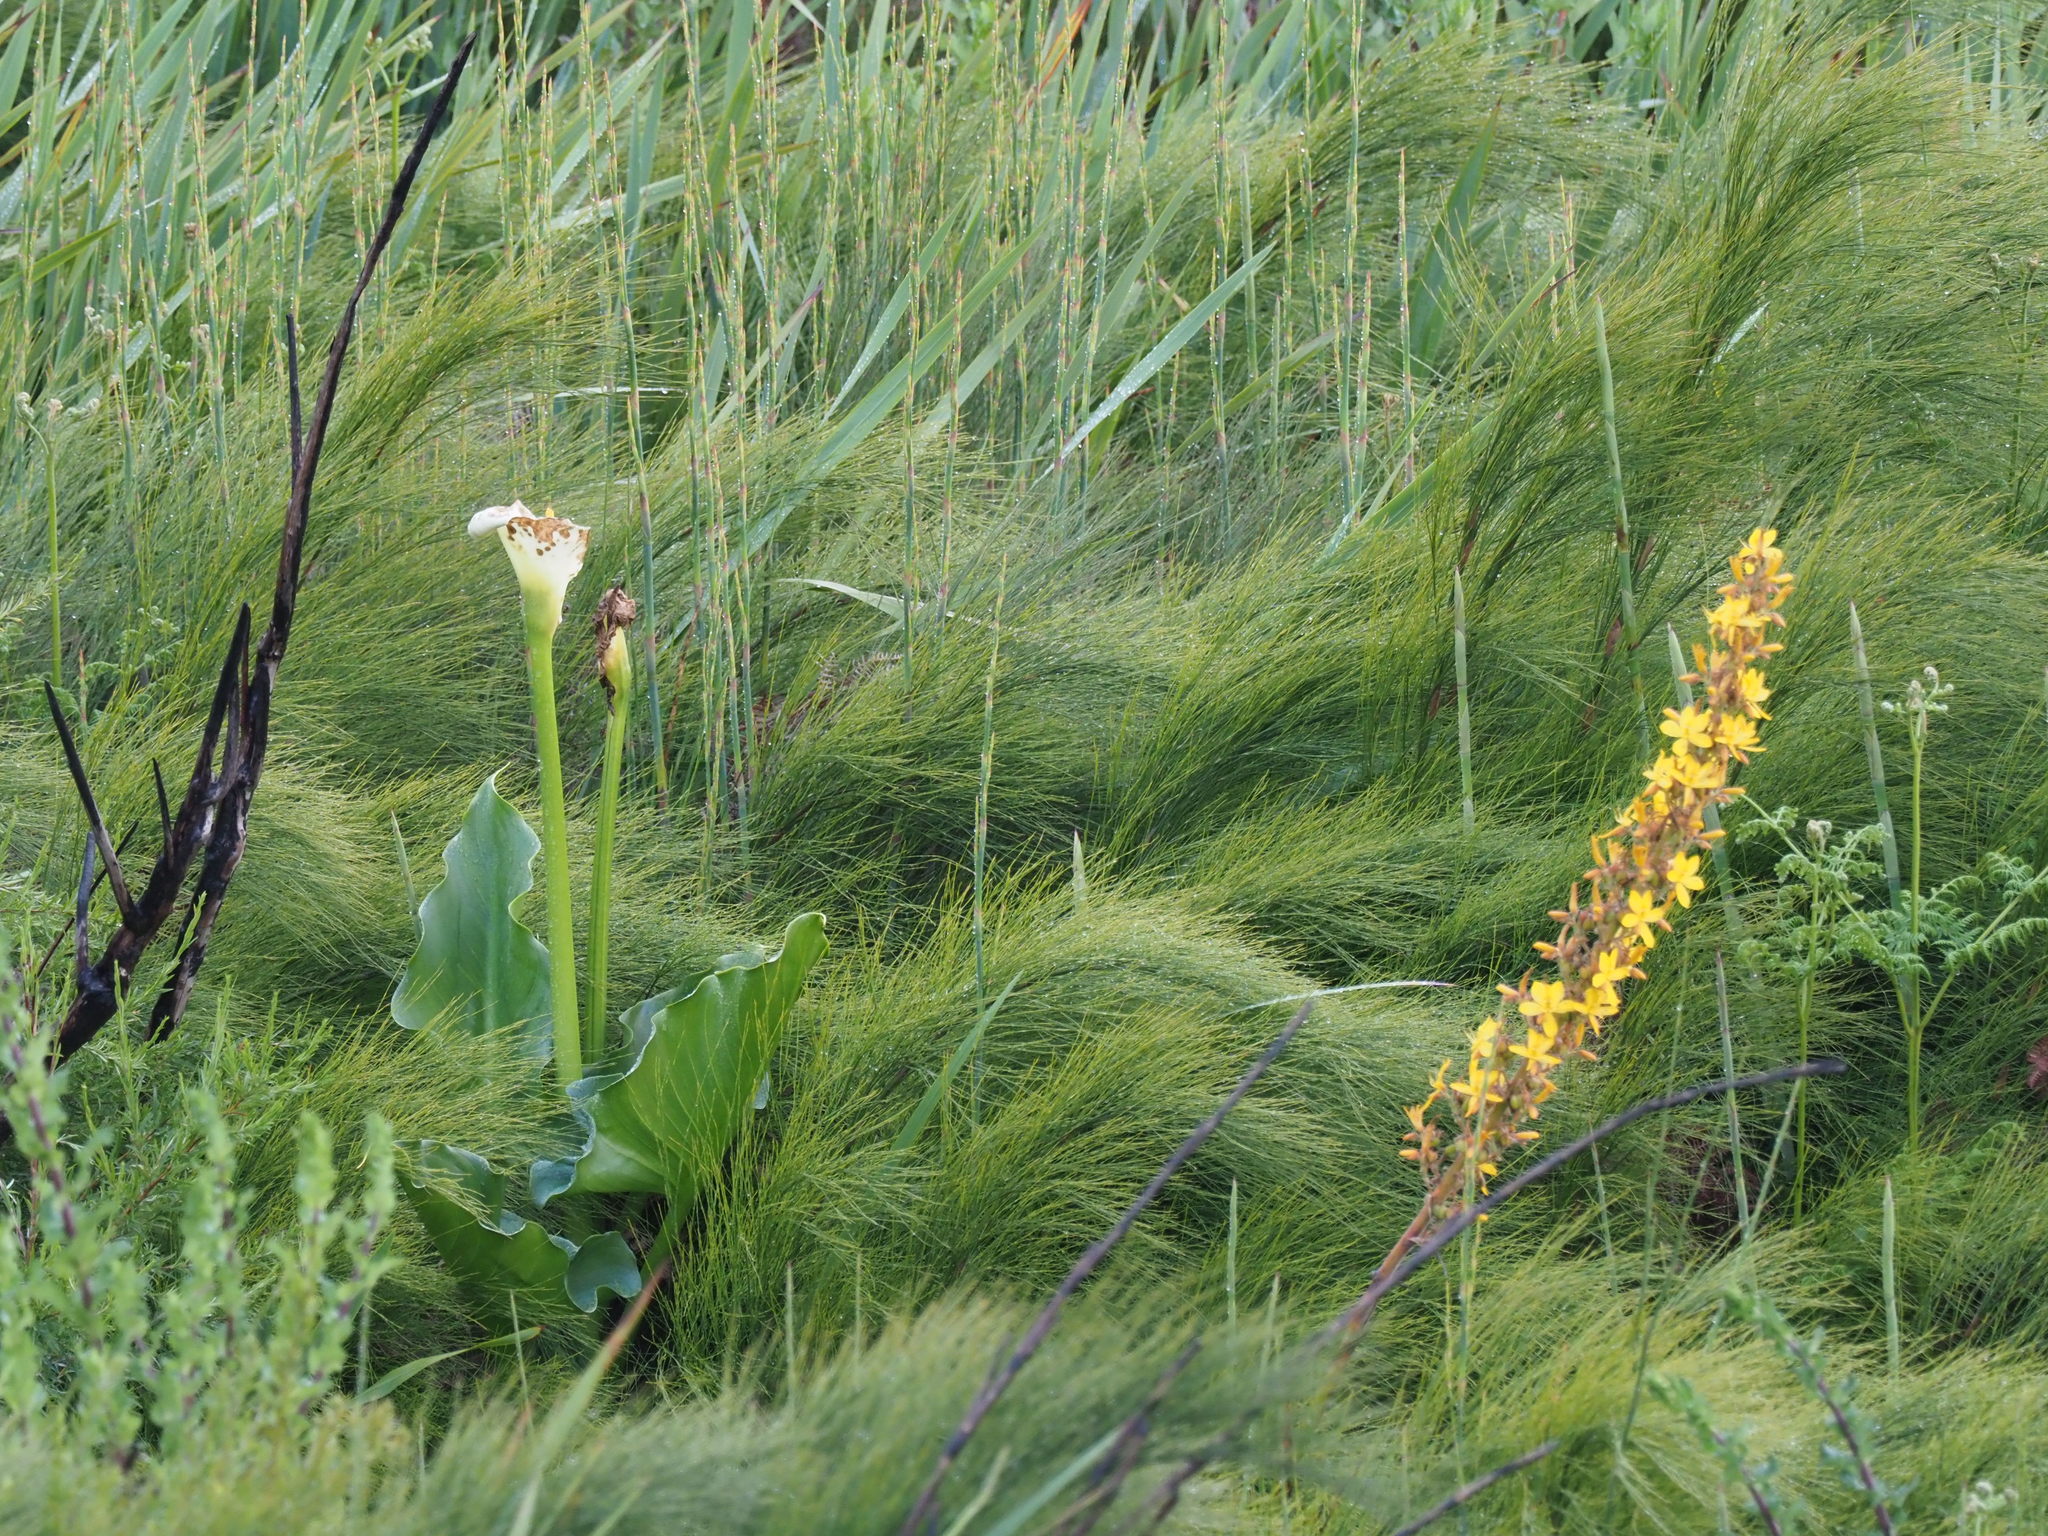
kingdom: Plantae
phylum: Tracheophyta
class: Liliopsida
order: Commelinales
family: Haemodoraceae
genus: Wachendorfia
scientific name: Wachendorfia thyrsiflora
